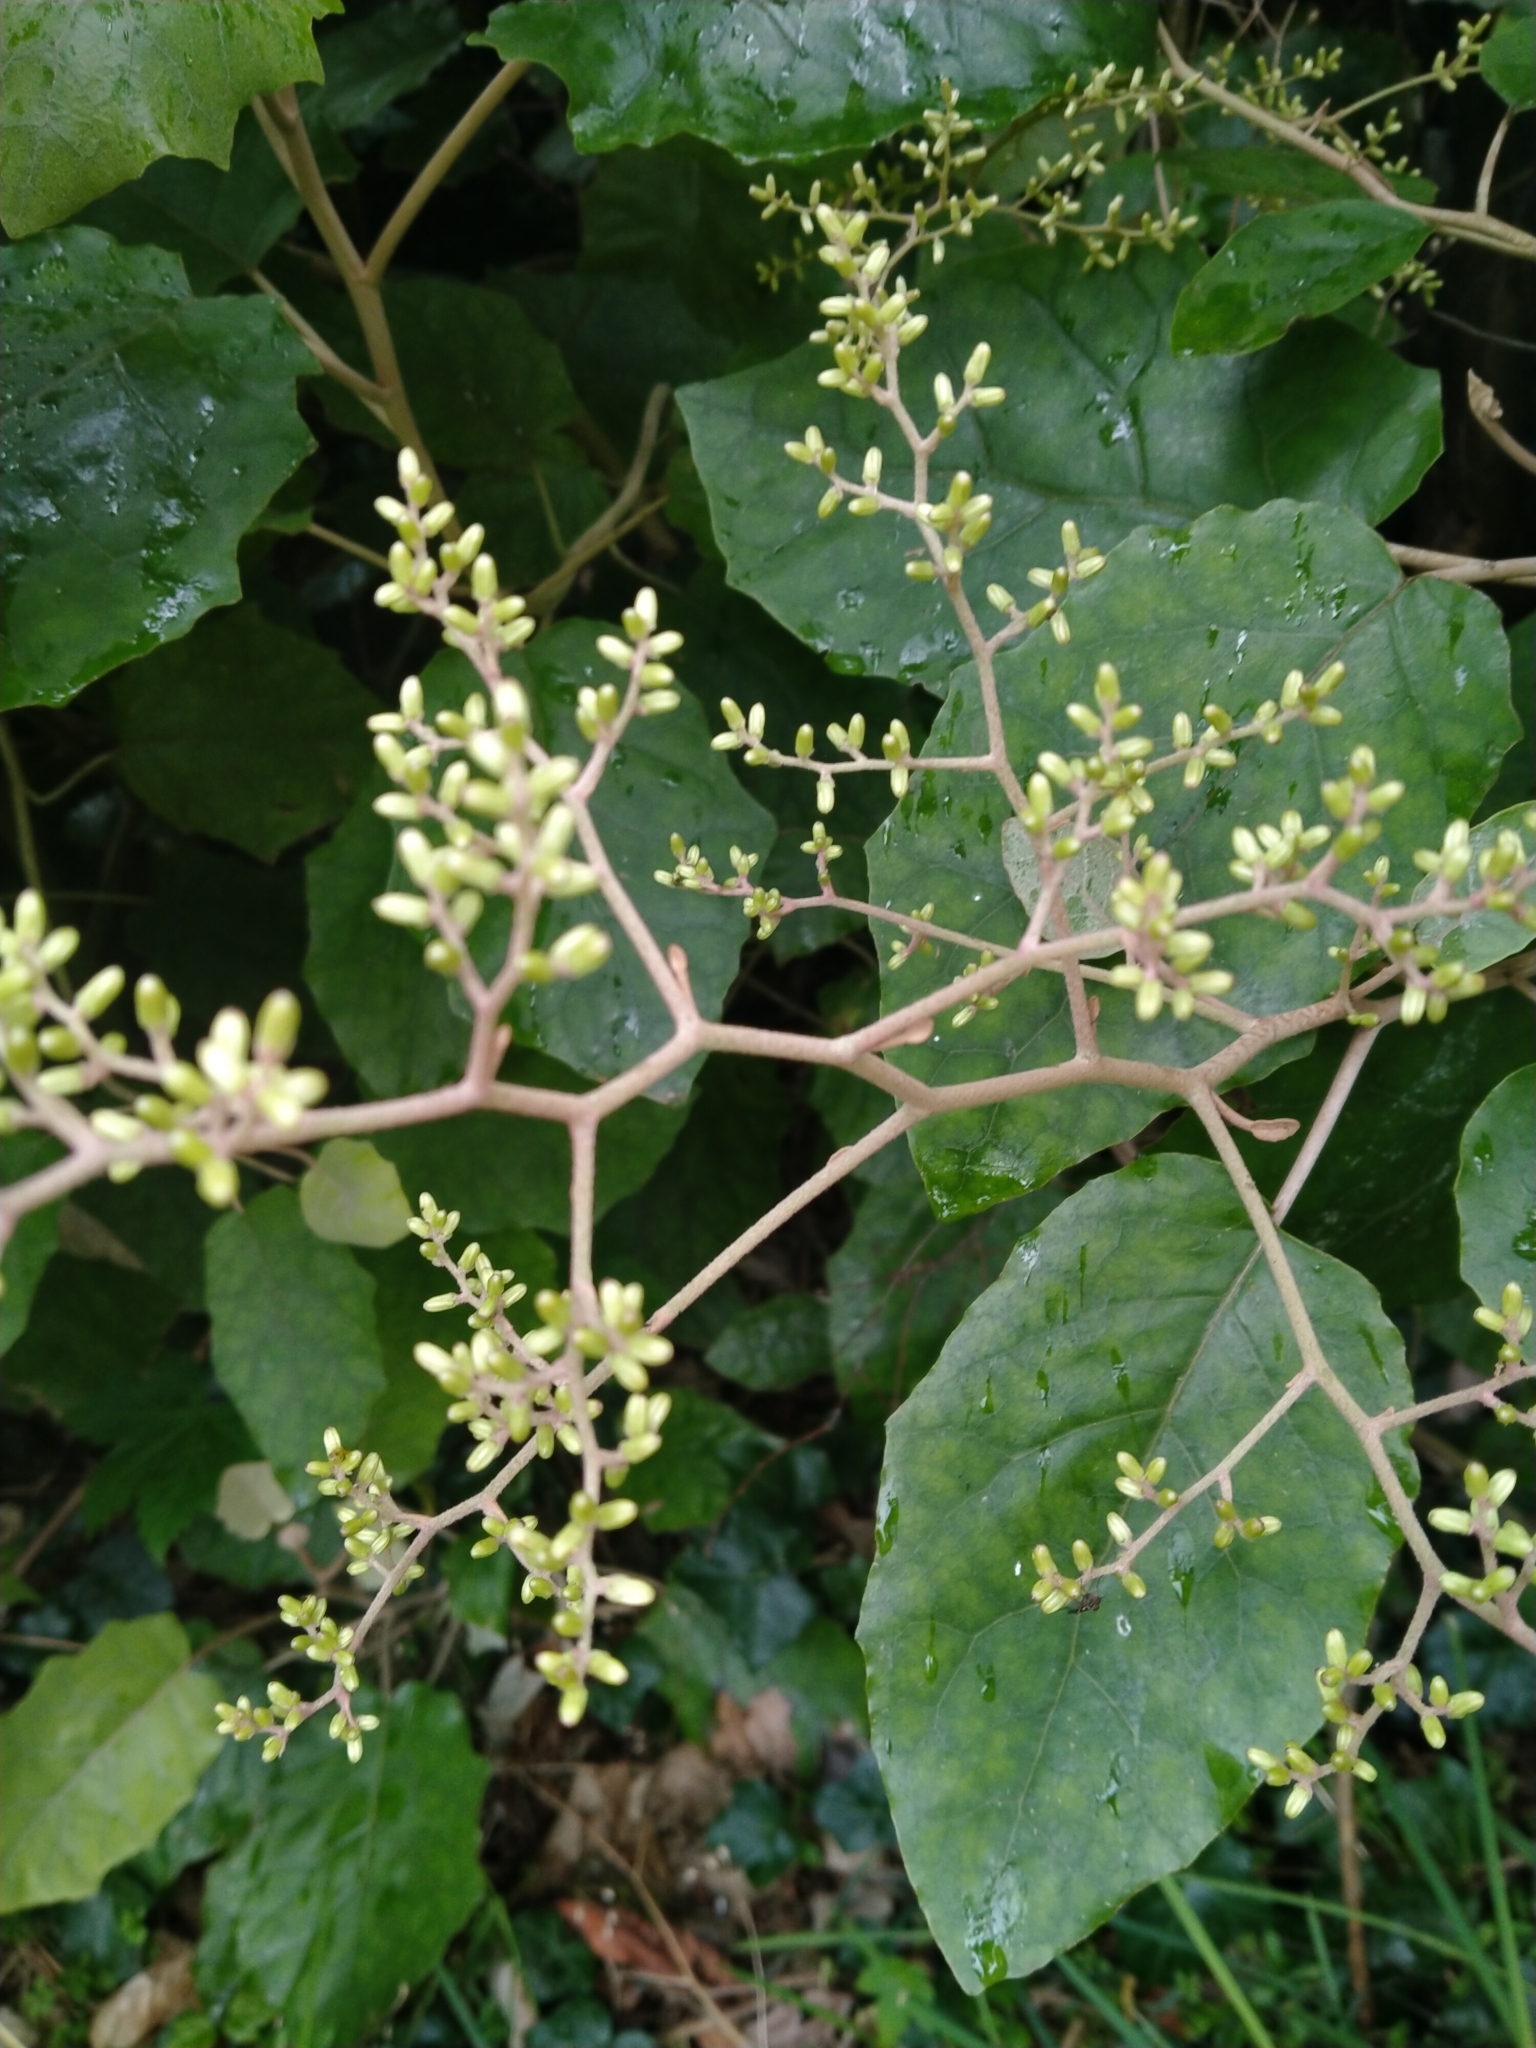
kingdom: Plantae
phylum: Tracheophyta
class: Magnoliopsida
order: Asterales
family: Asteraceae
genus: Brachyglottis
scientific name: Brachyglottis repanda
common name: Hedge ragwort
